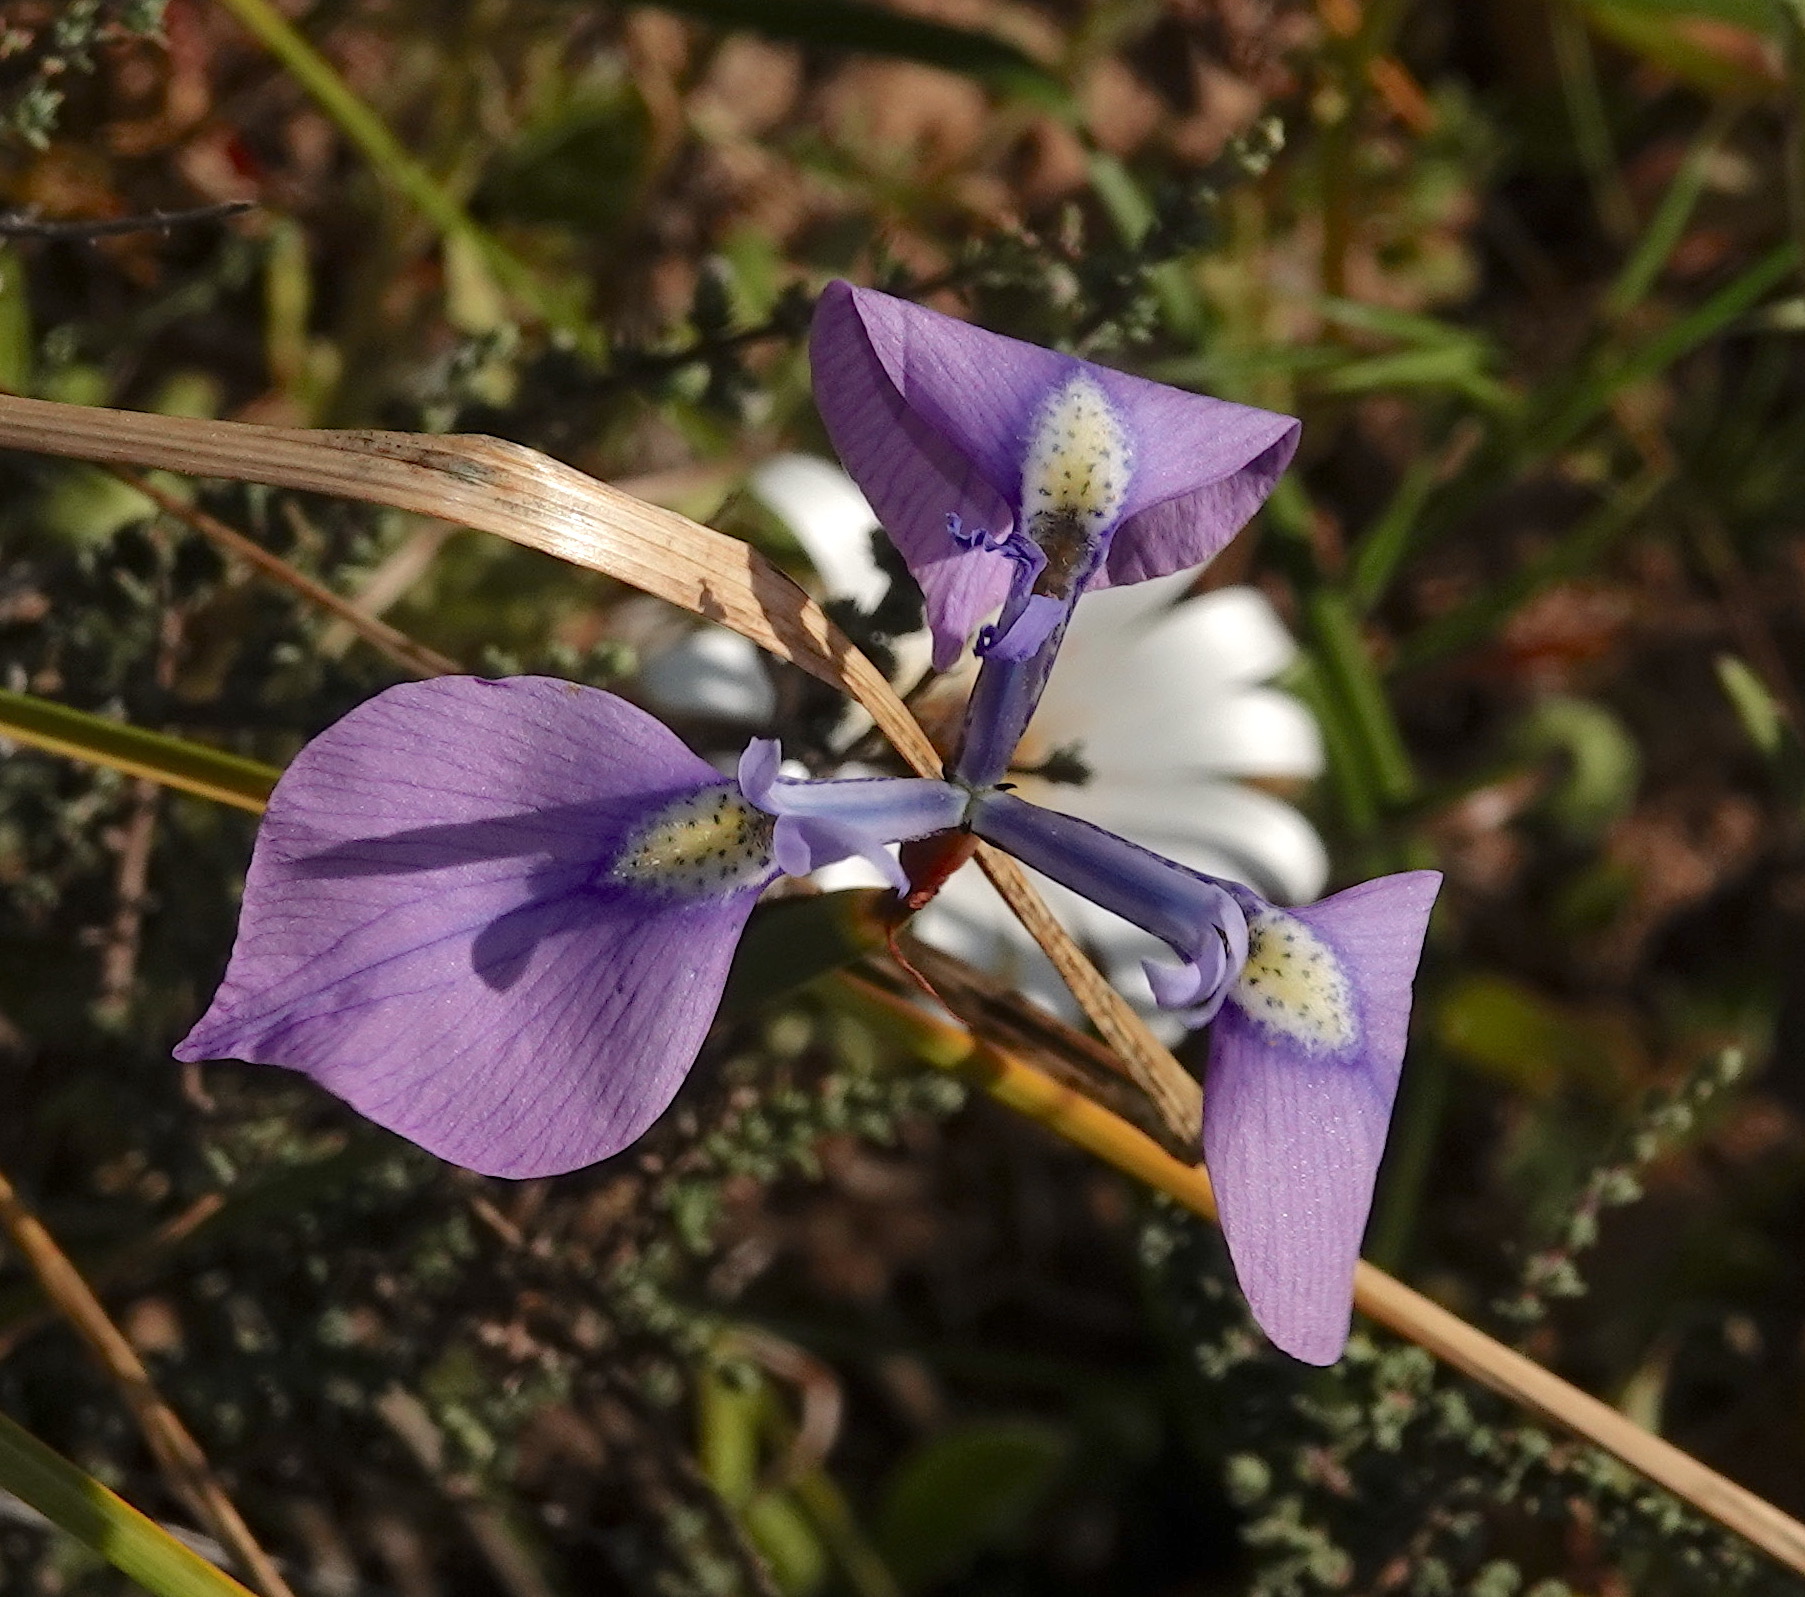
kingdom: Plantae
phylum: Tracheophyta
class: Liliopsida
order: Asparagales
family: Iridaceae
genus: Moraea
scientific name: Moraea tripetala
